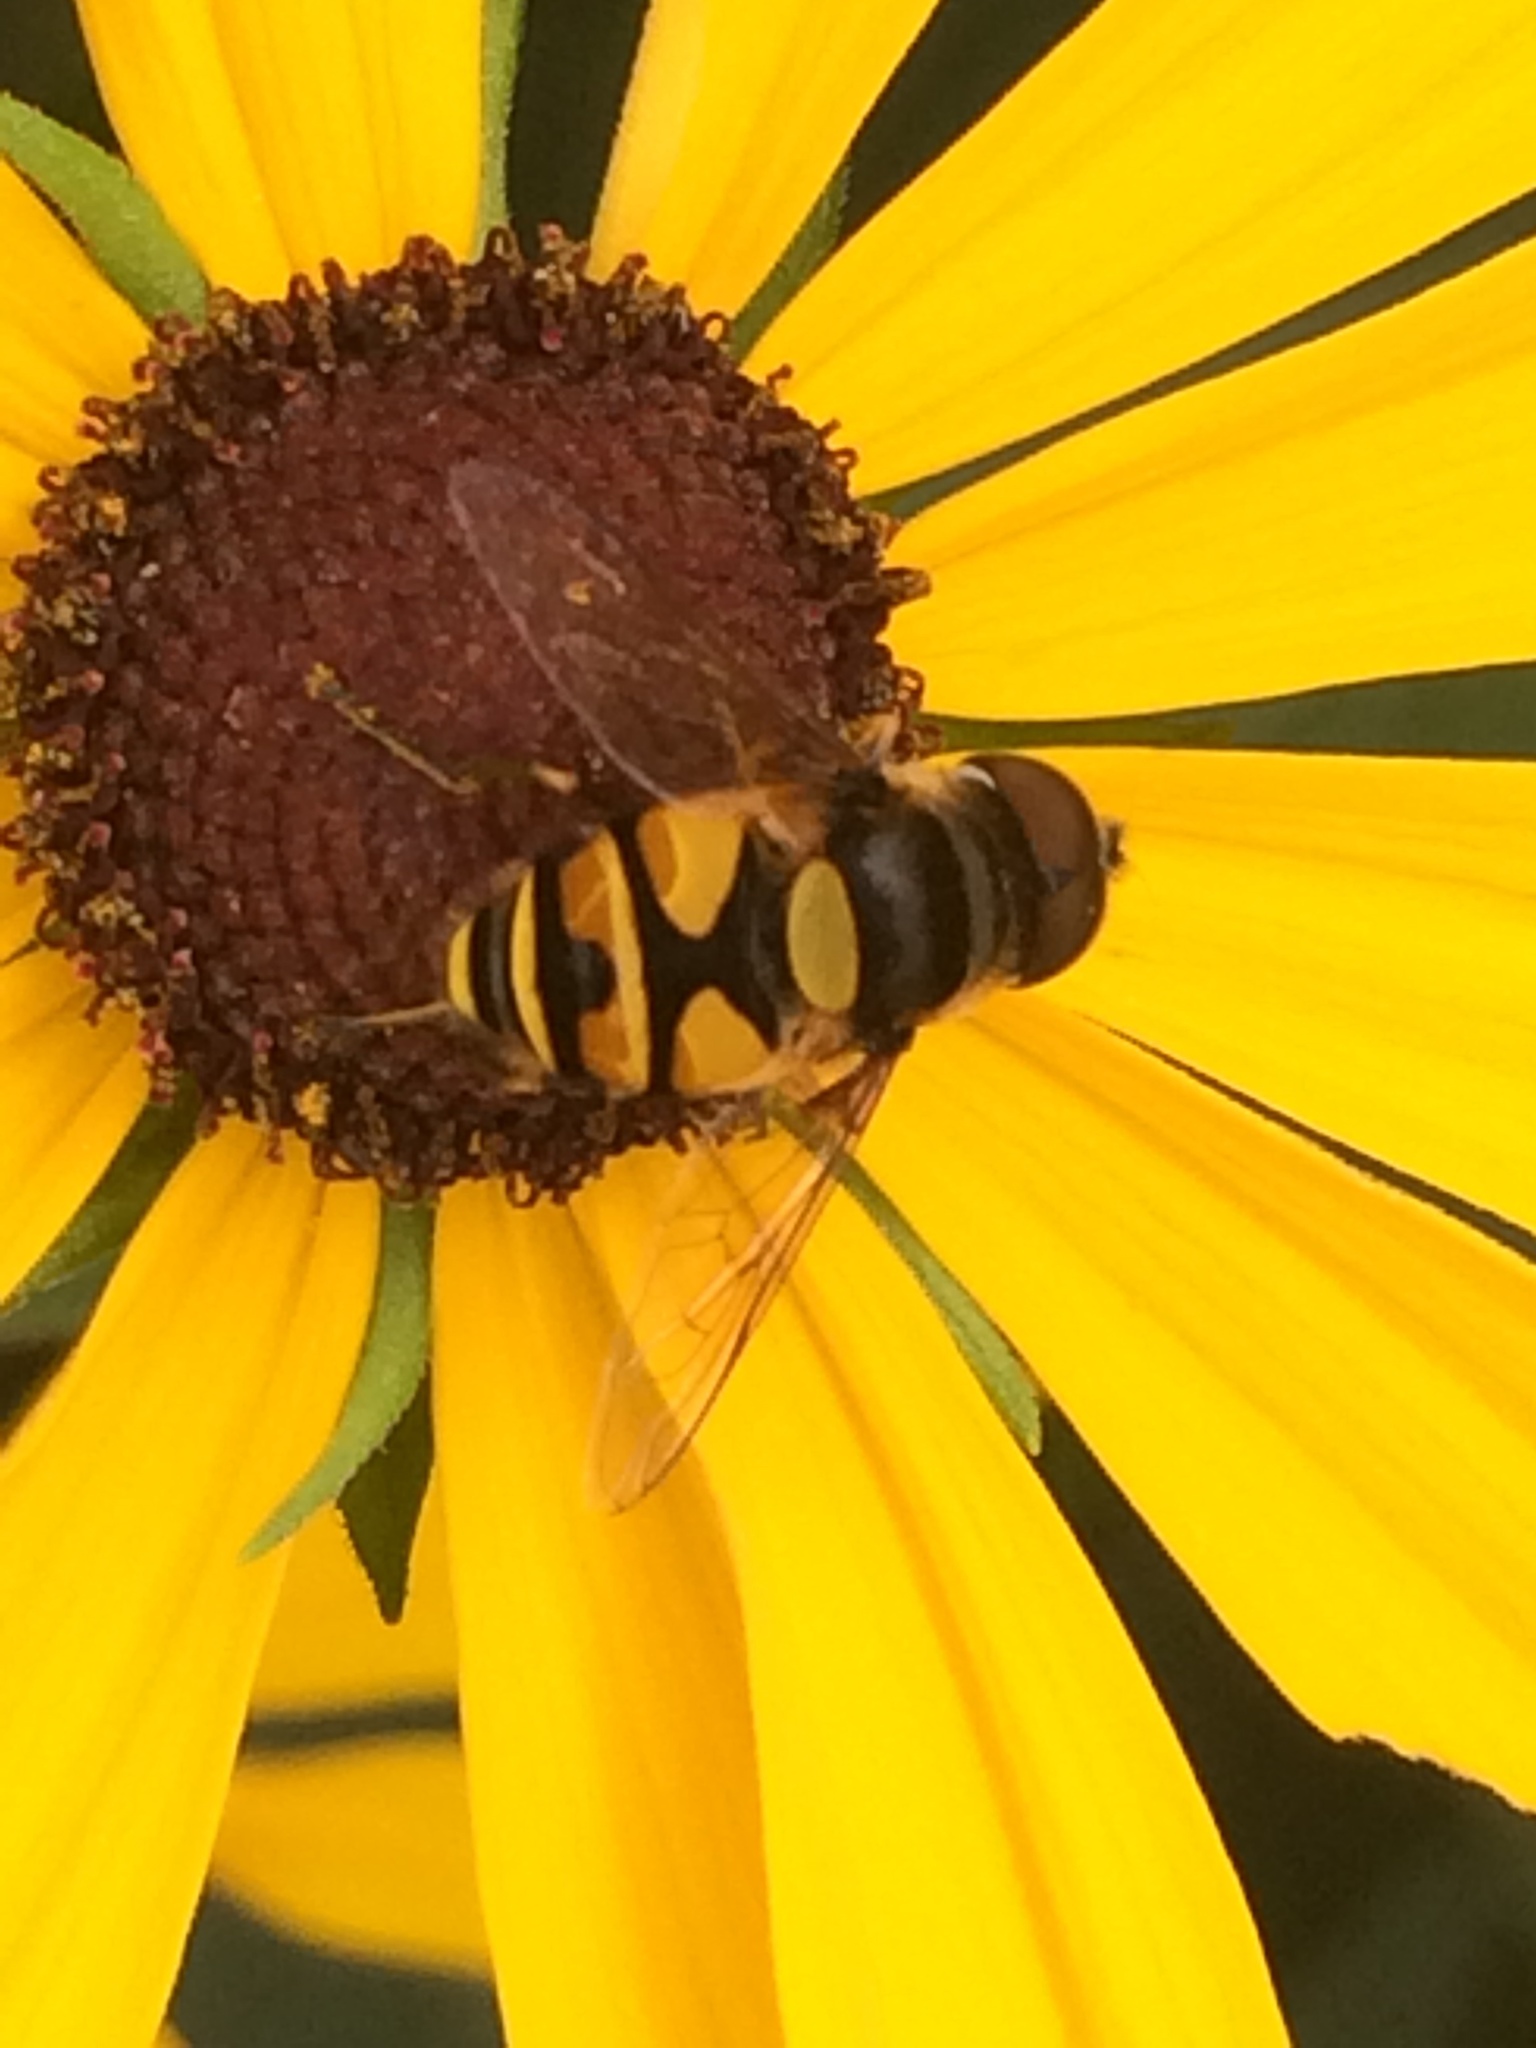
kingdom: Animalia
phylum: Arthropoda
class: Insecta
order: Diptera
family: Syrphidae
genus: Eristalis
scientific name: Eristalis transversa
